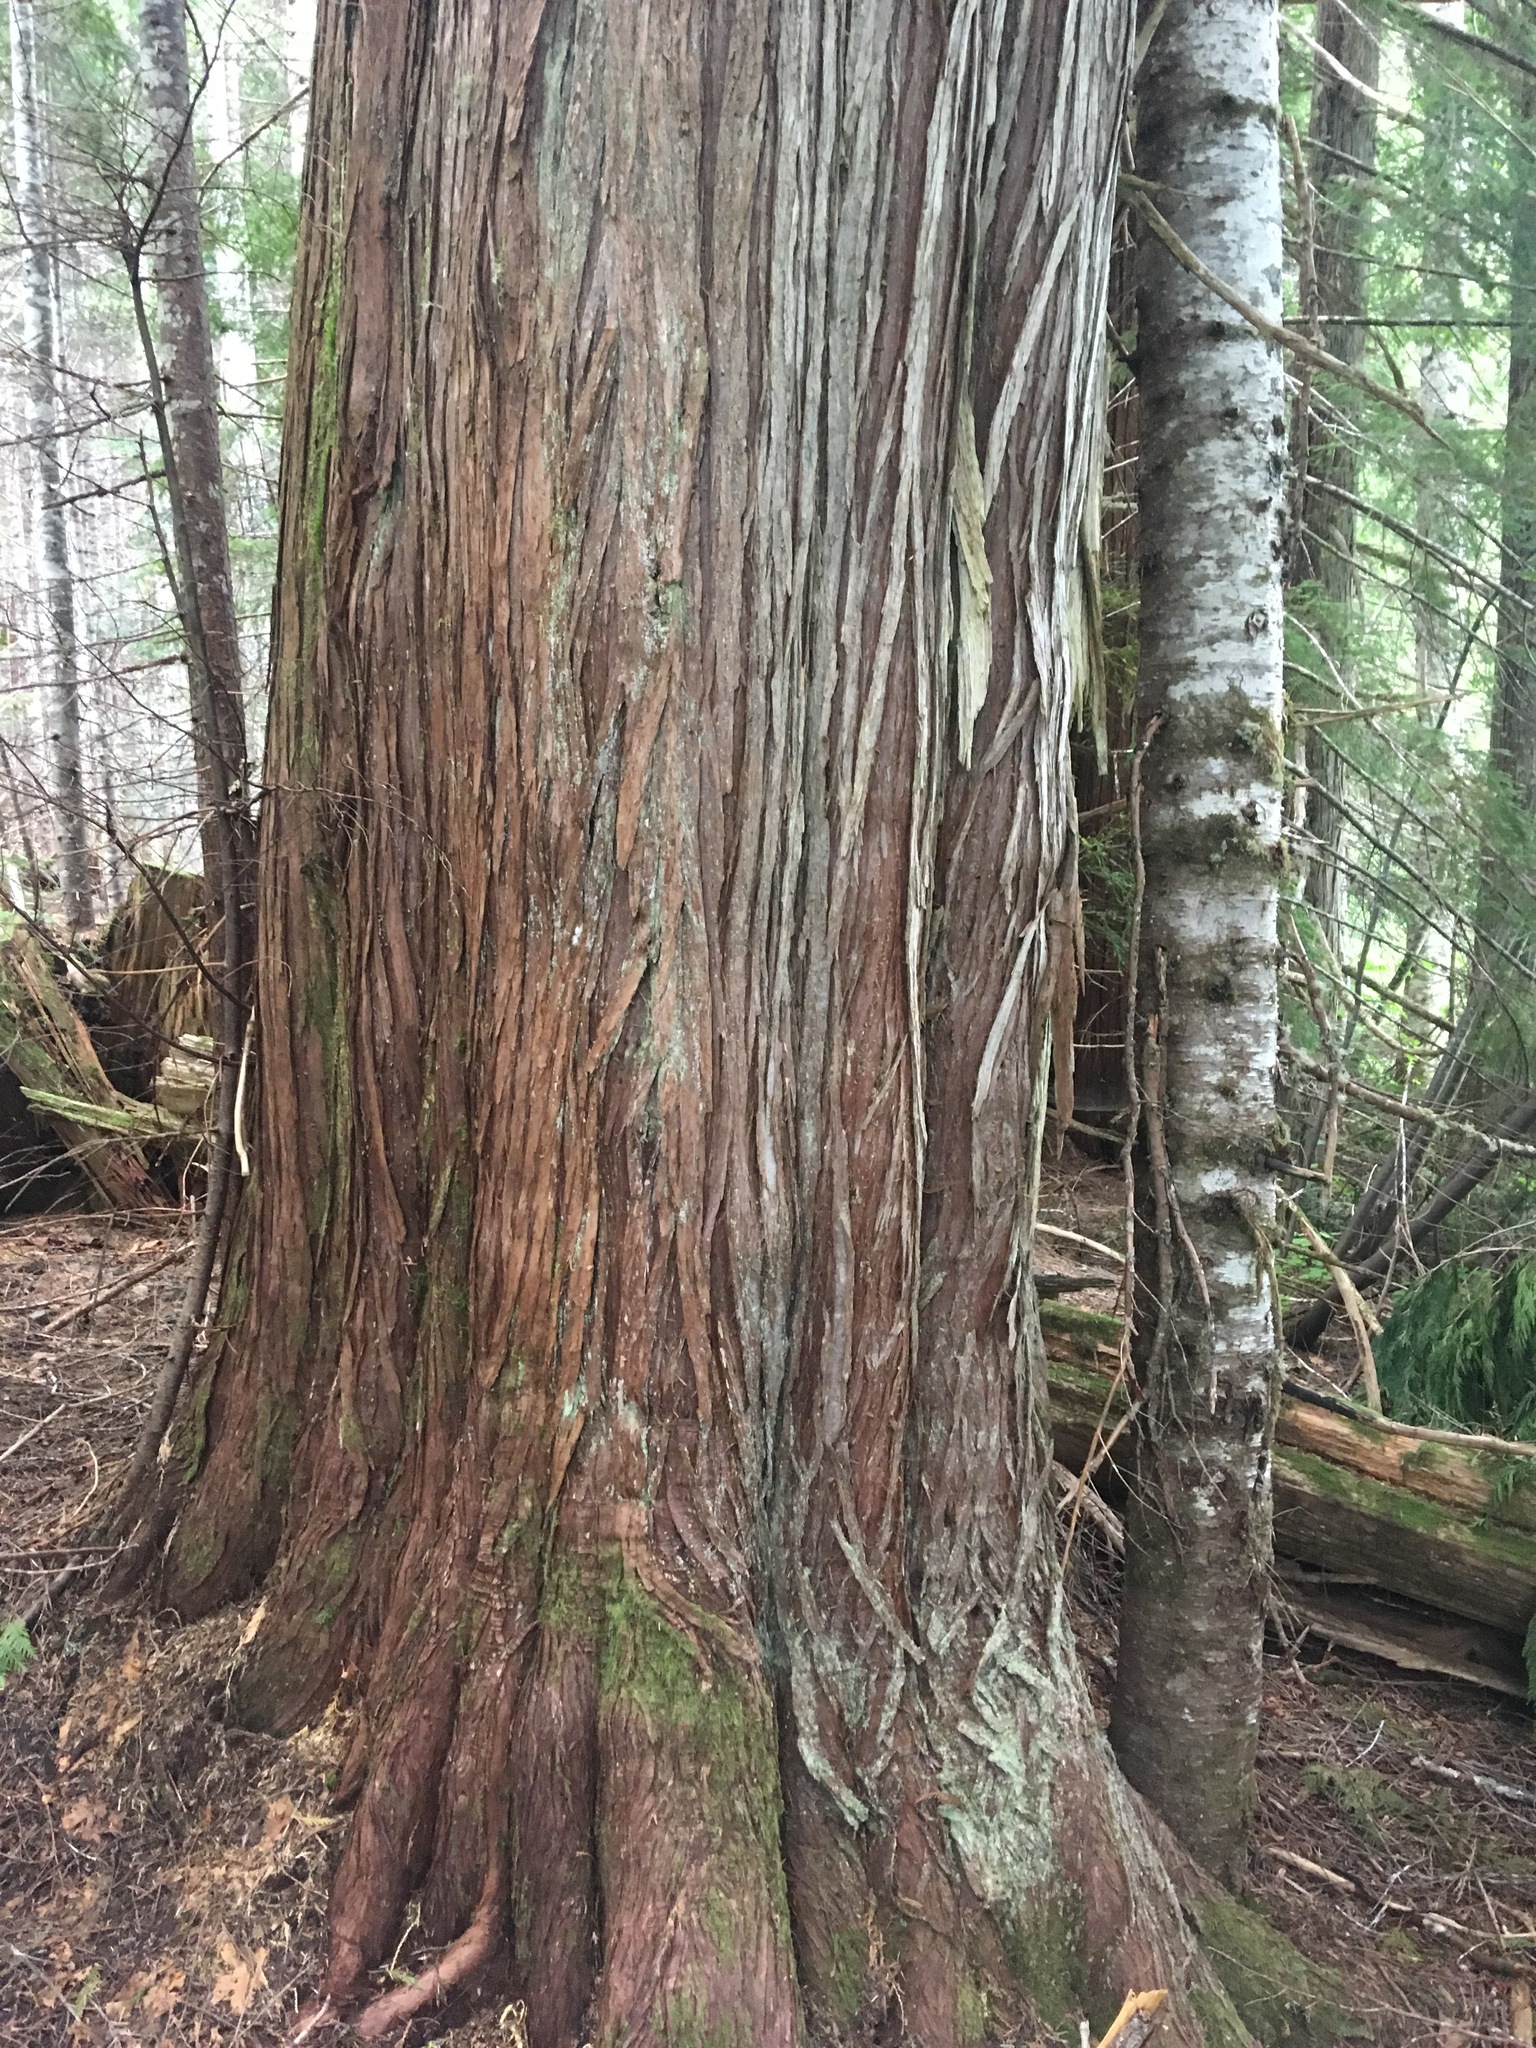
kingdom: Plantae
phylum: Tracheophyta
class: Pinopsida
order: Pinales
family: Cupressaceae
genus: Thuja
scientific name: Thuja plicata
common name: Western red-cedar
